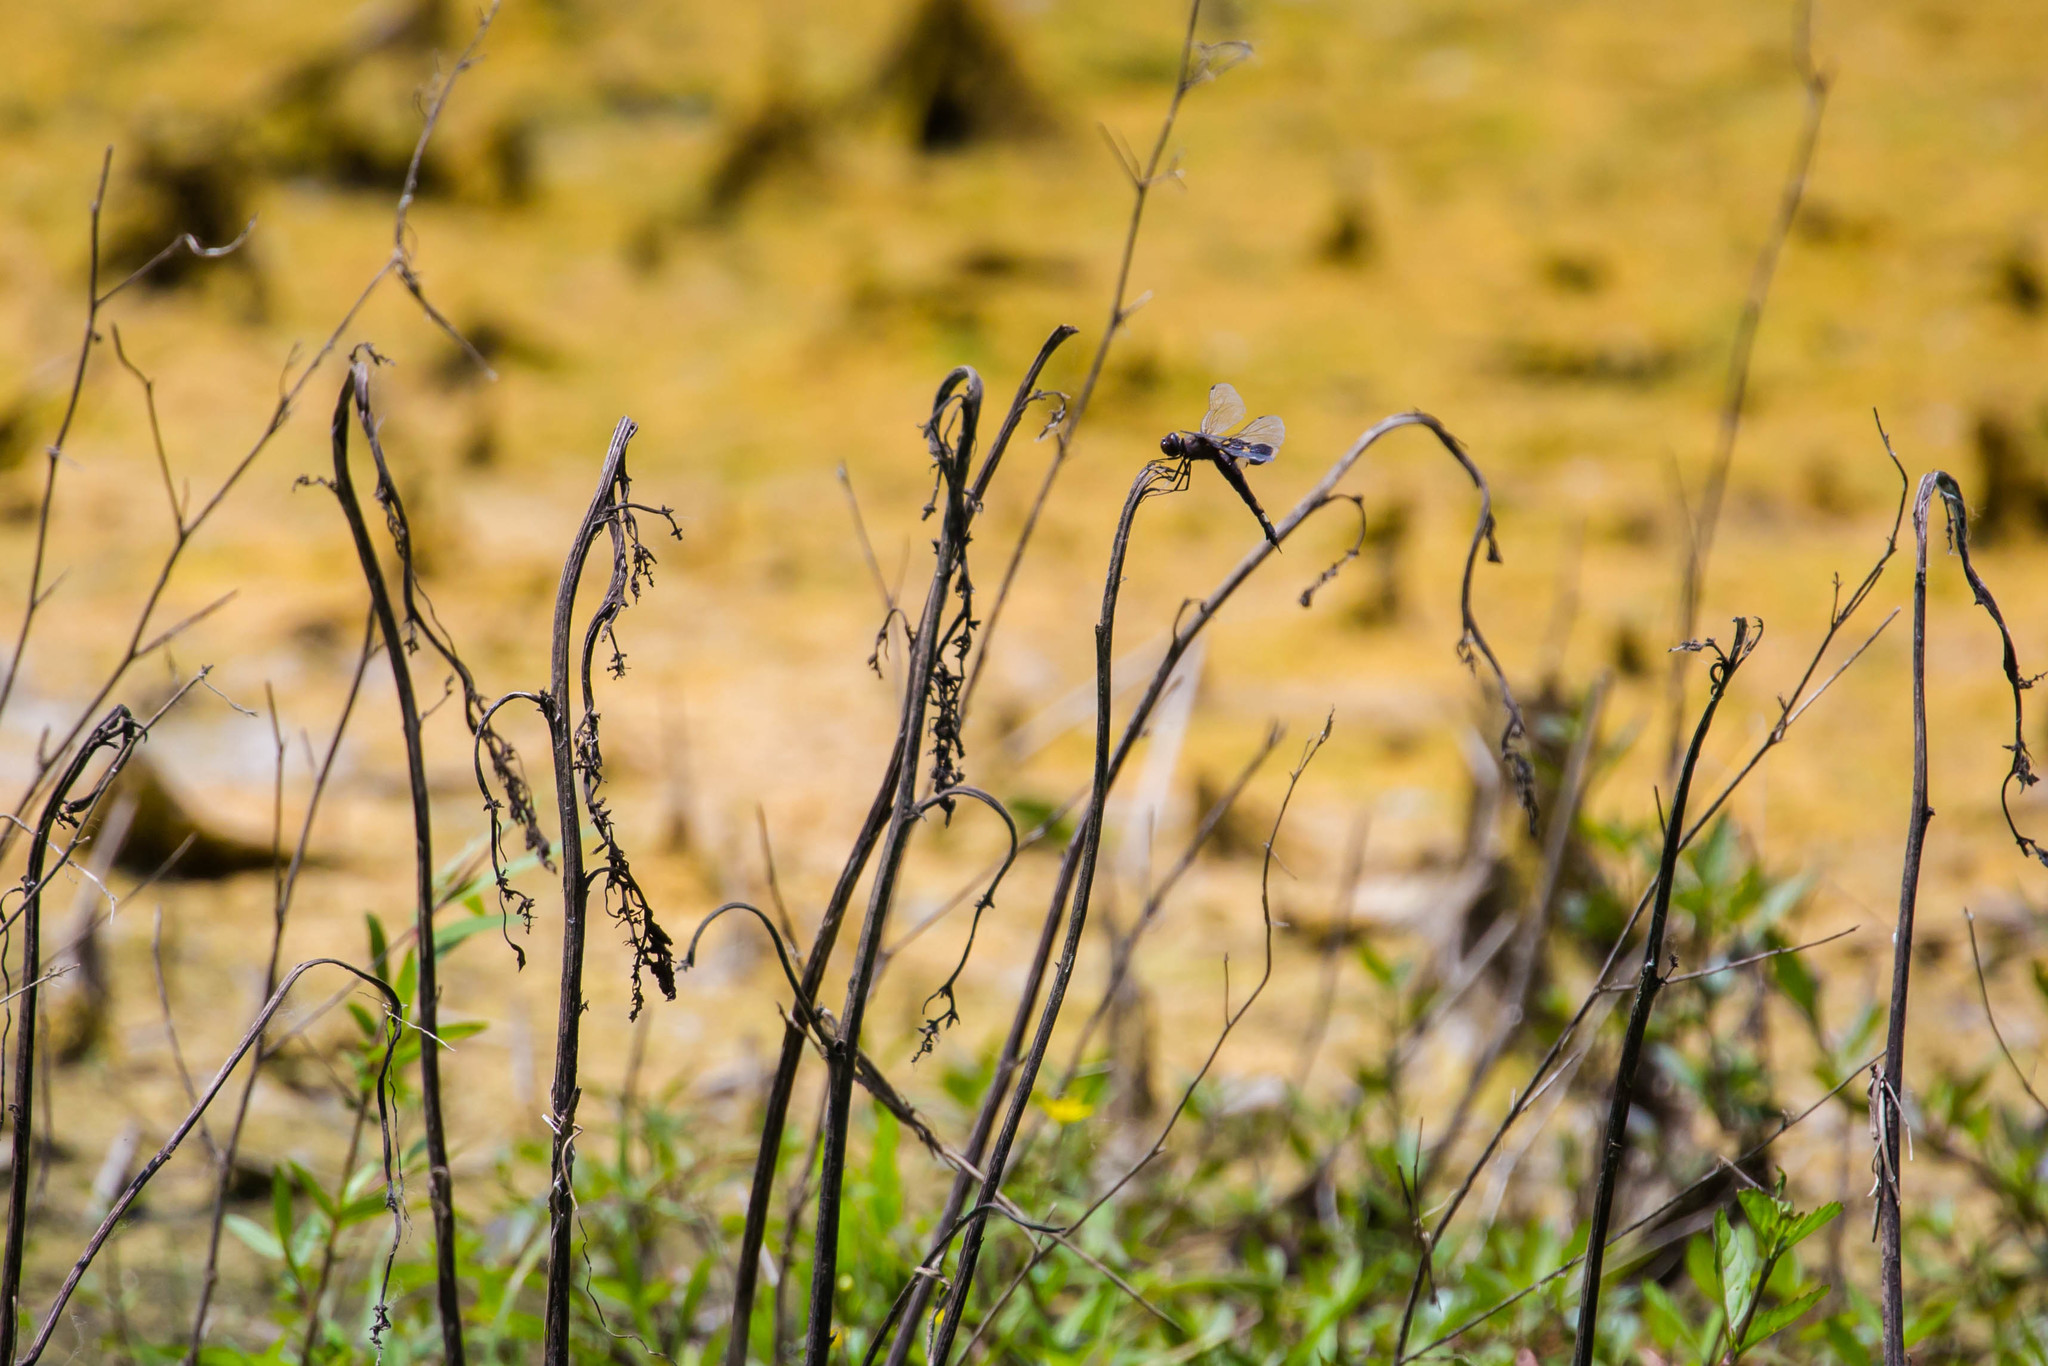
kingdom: Animalia
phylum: Arthropoda
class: Insecta
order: Odonata
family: Libellulidae
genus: Tramea
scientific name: Tramea lacerata
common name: Black saddlebags
